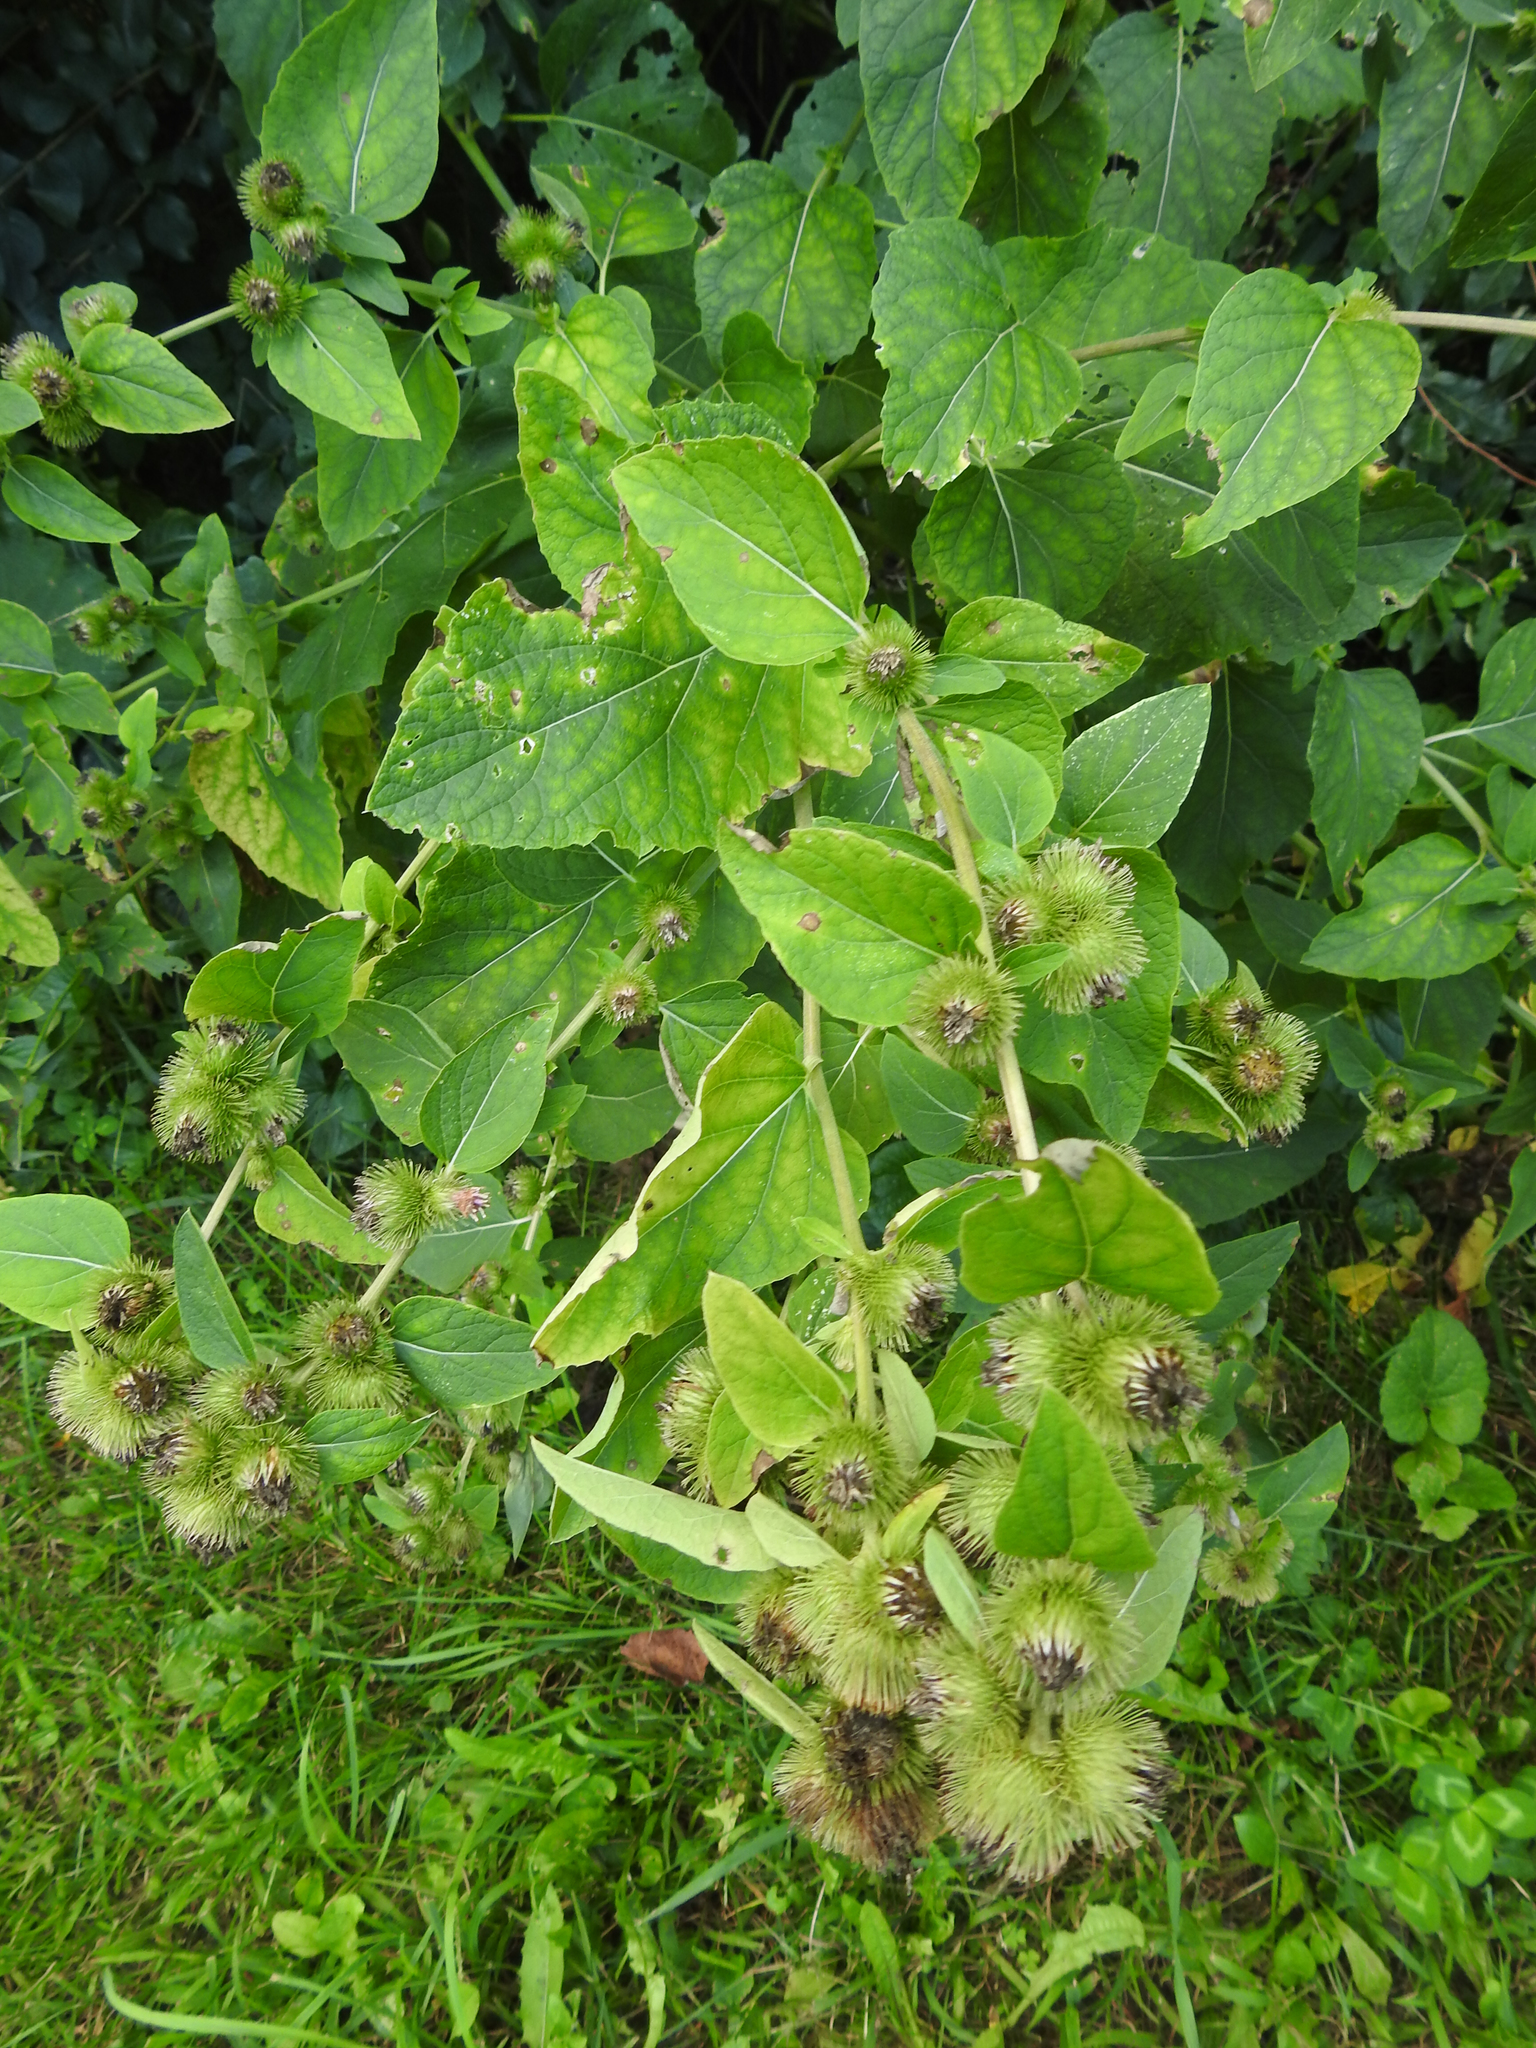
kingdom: Plantae
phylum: Tracheophyta
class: Magnoliopsida
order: Asterales
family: Asteraceae
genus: Arctium
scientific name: Arctium minus
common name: Lesser burdock
